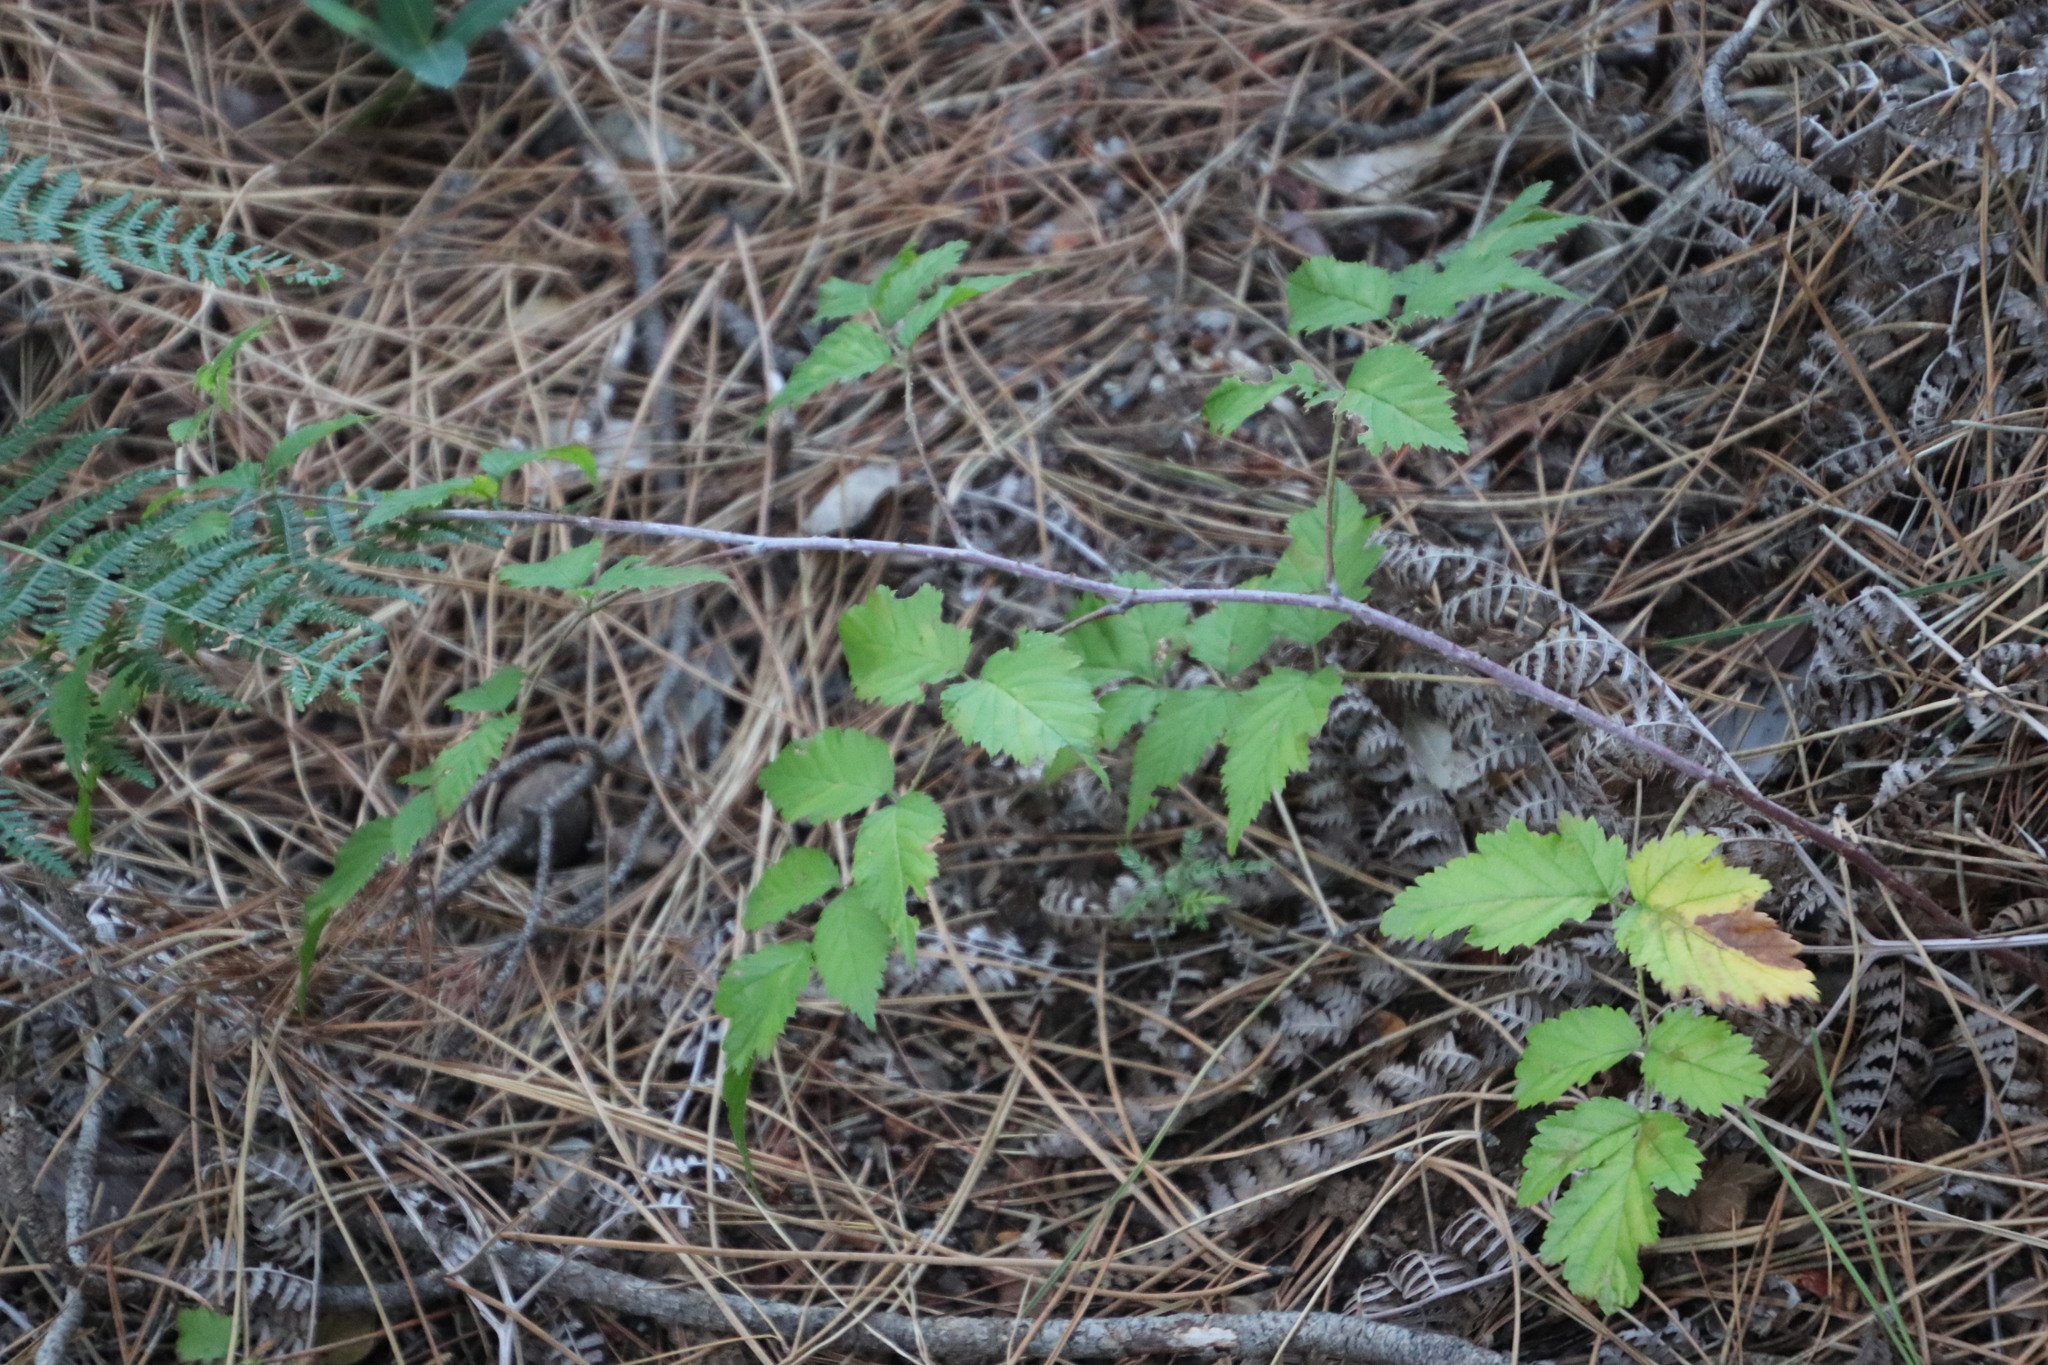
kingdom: Plantae
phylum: Tracheophyta
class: Magnoliopsida
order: Rosales
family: Rosaceae
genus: Rubus
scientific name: Rubus pinnatus
